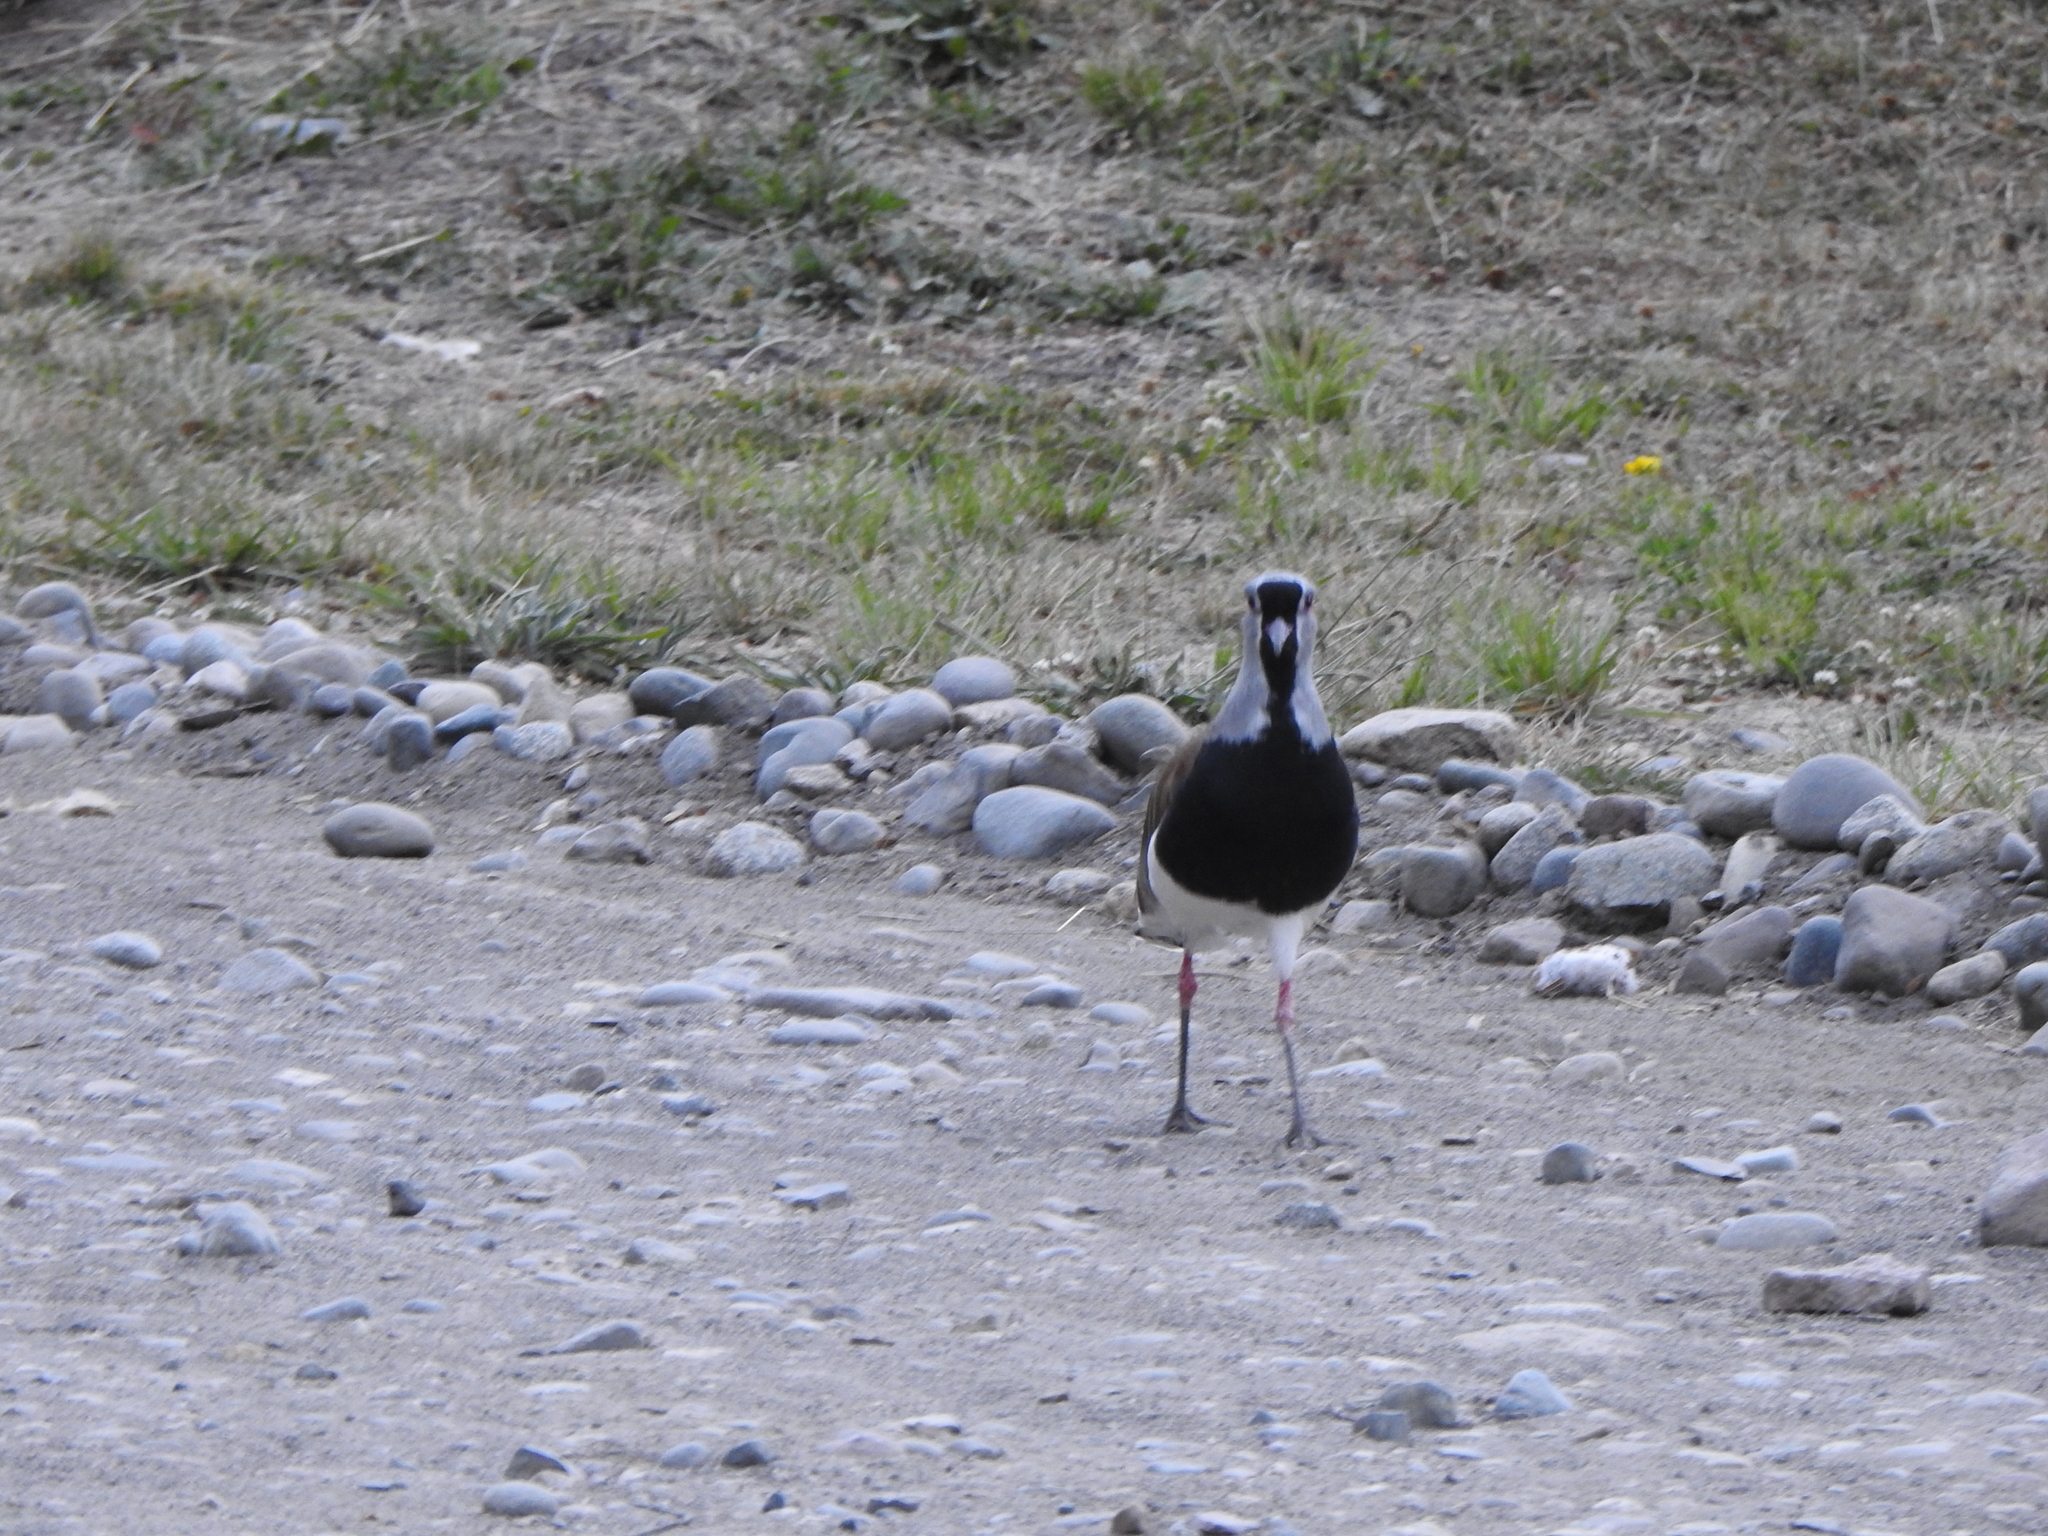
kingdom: Animalia
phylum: Chordata
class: Aves
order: Charadriiformes
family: Charadriidae
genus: Vanellus
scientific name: Vanellus chilensis
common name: Southern lapwing
